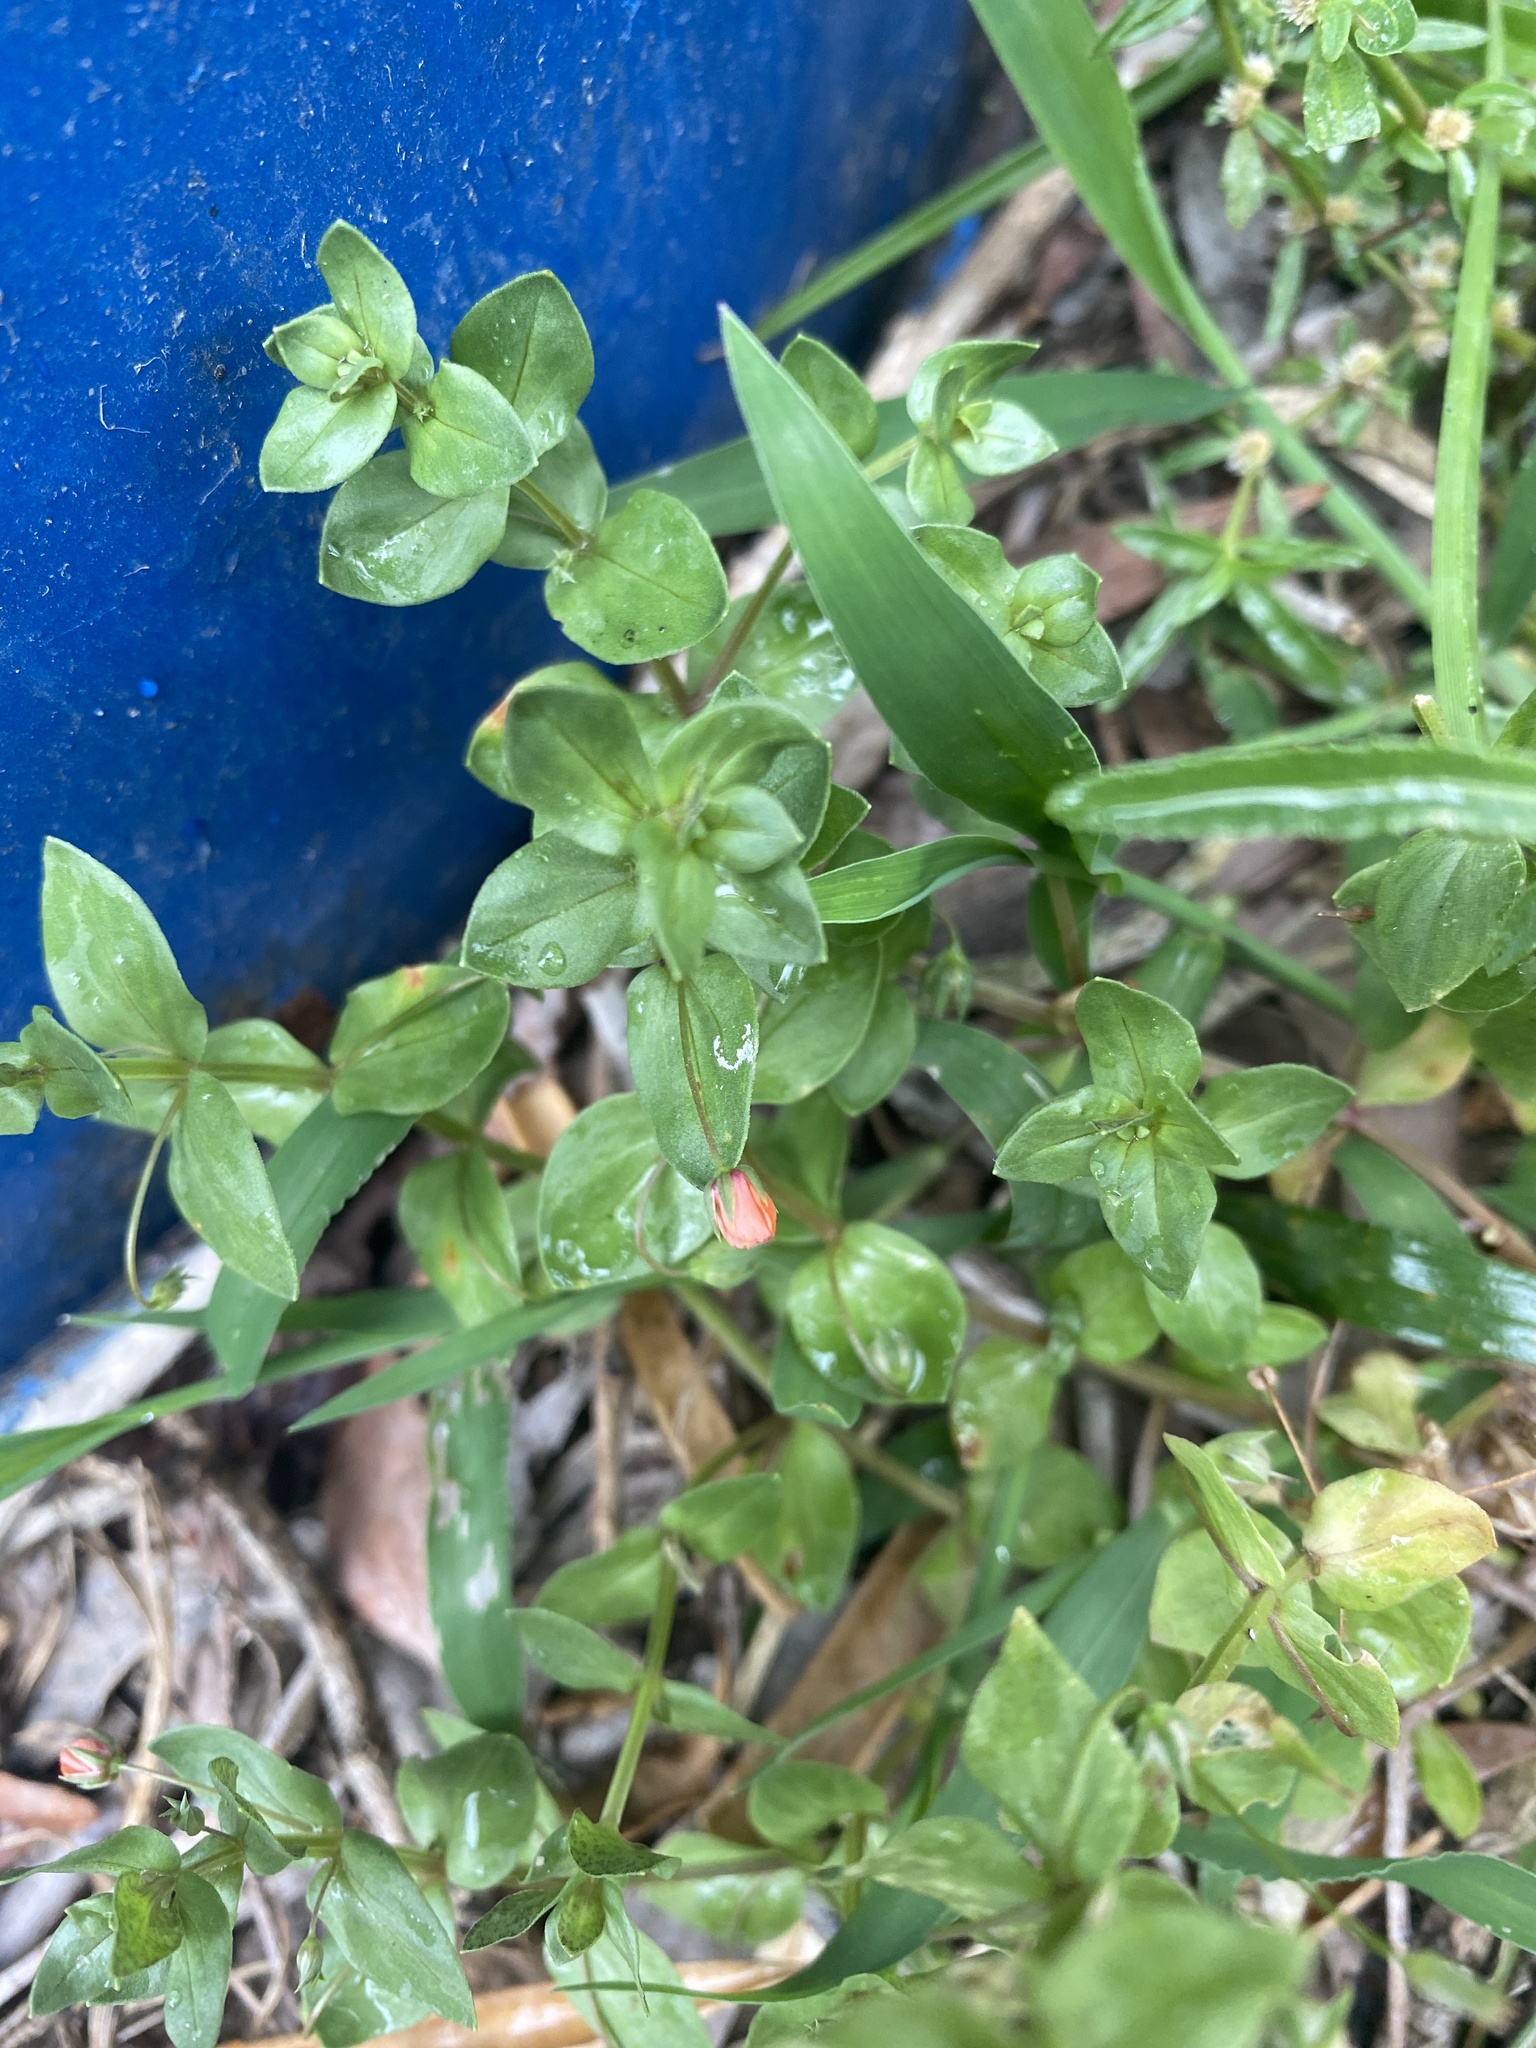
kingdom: Plantae
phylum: Tracheophyta
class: Magnoliopsida
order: Ericales
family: Primulaceae
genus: Lysimachia
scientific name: Lysimachia arvensis
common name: Scarlet pimpernel
